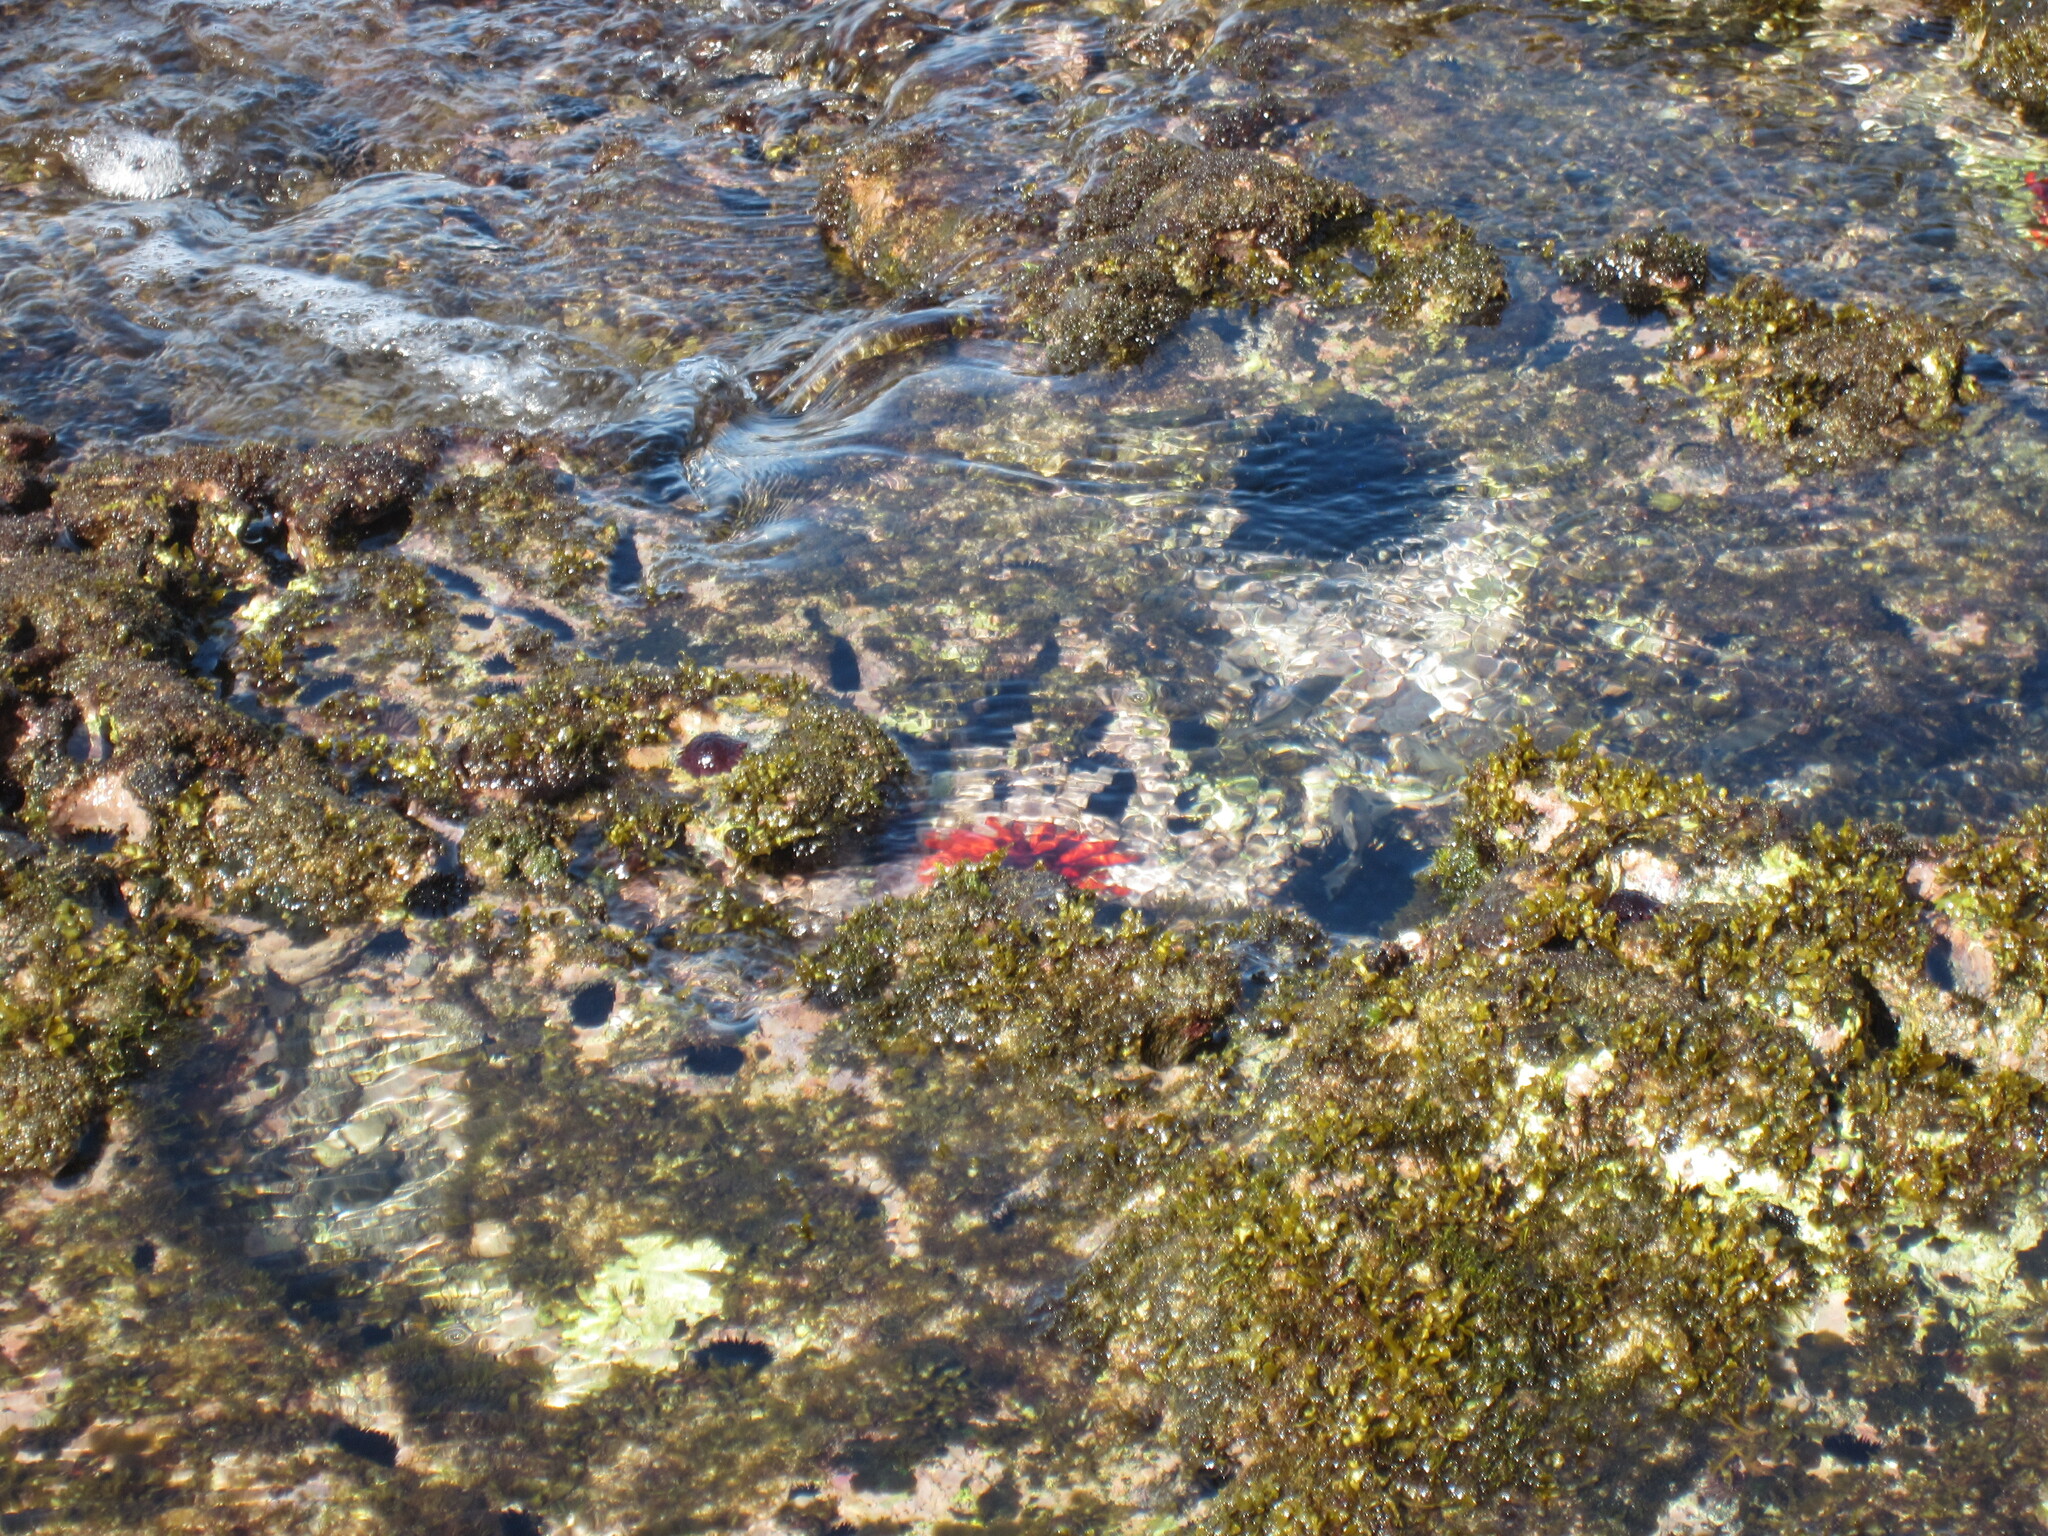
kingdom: Animalia
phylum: Echinodermata
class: Echinoidea
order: Camarodonta
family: Echinometridae
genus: Heterocentrotus
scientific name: Heterocentrotus mamillatus
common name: Slate pencil urchin
